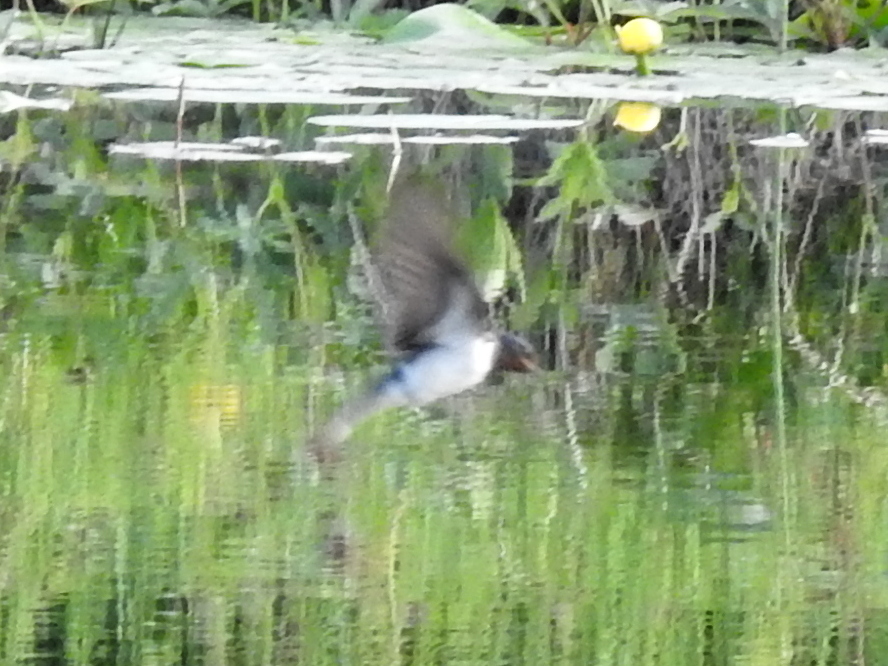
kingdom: Animalia
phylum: Chordata
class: Aves
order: Passeriformes
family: Hirundinidae
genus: Hirundo
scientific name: Hirundo rustica
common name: Barn swallow
